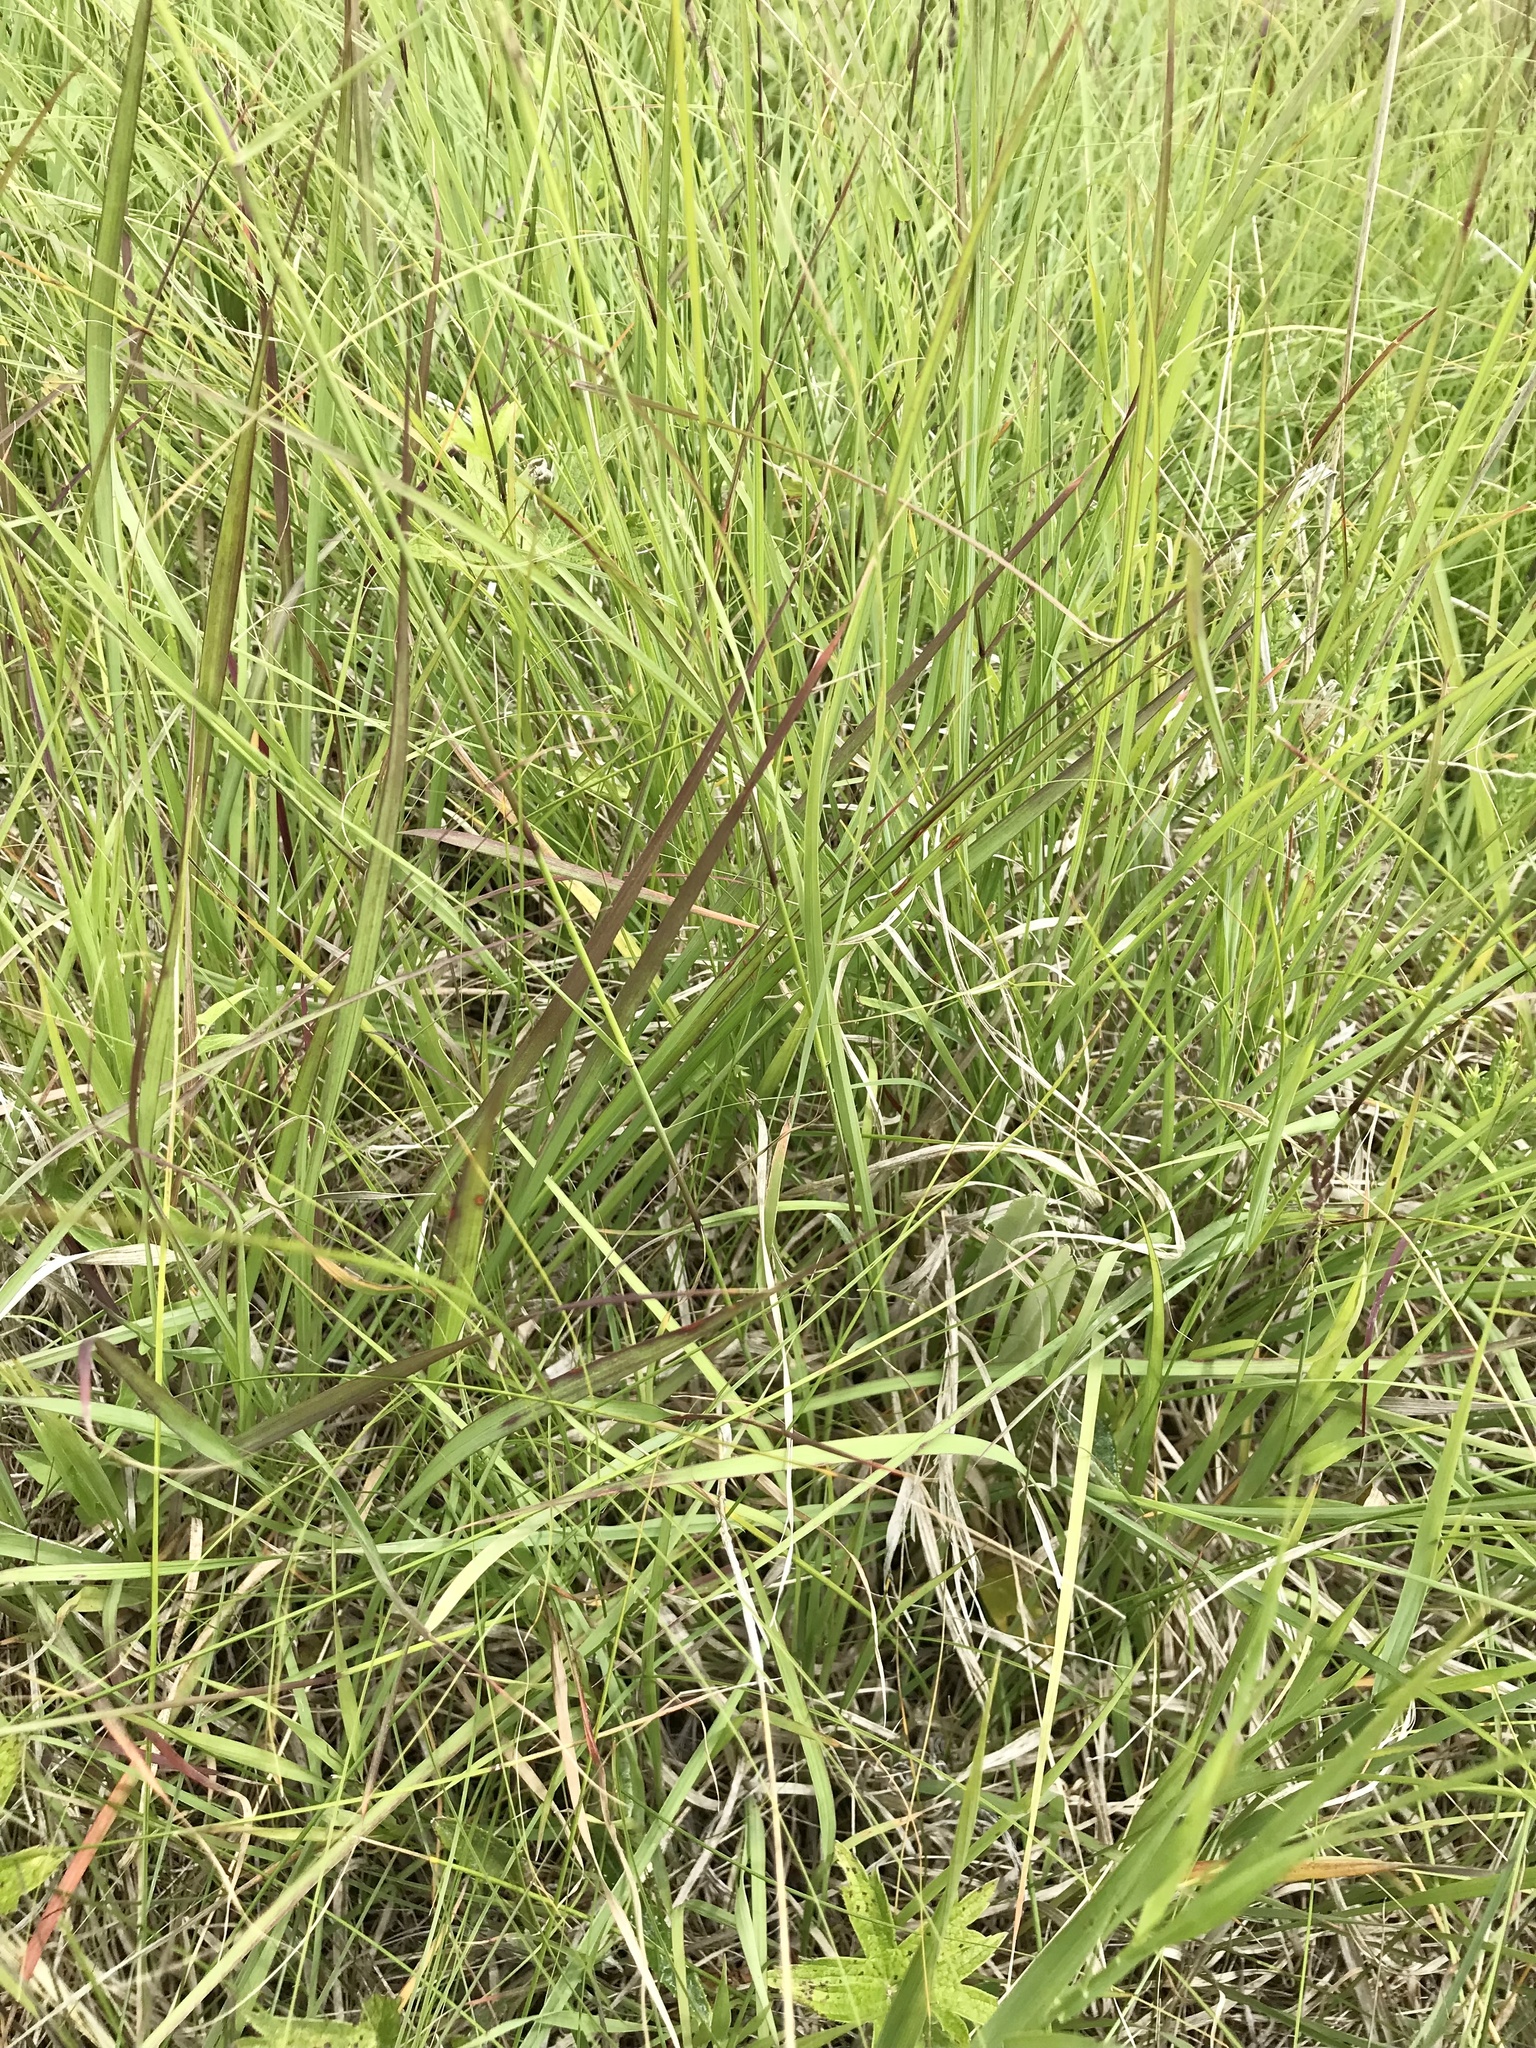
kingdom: Plantae
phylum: Tracheophyta
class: Liliopsida
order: Poales
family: Poaceae
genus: Bouteloua
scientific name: Bouteloua curtipendula
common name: Side-oats grama
